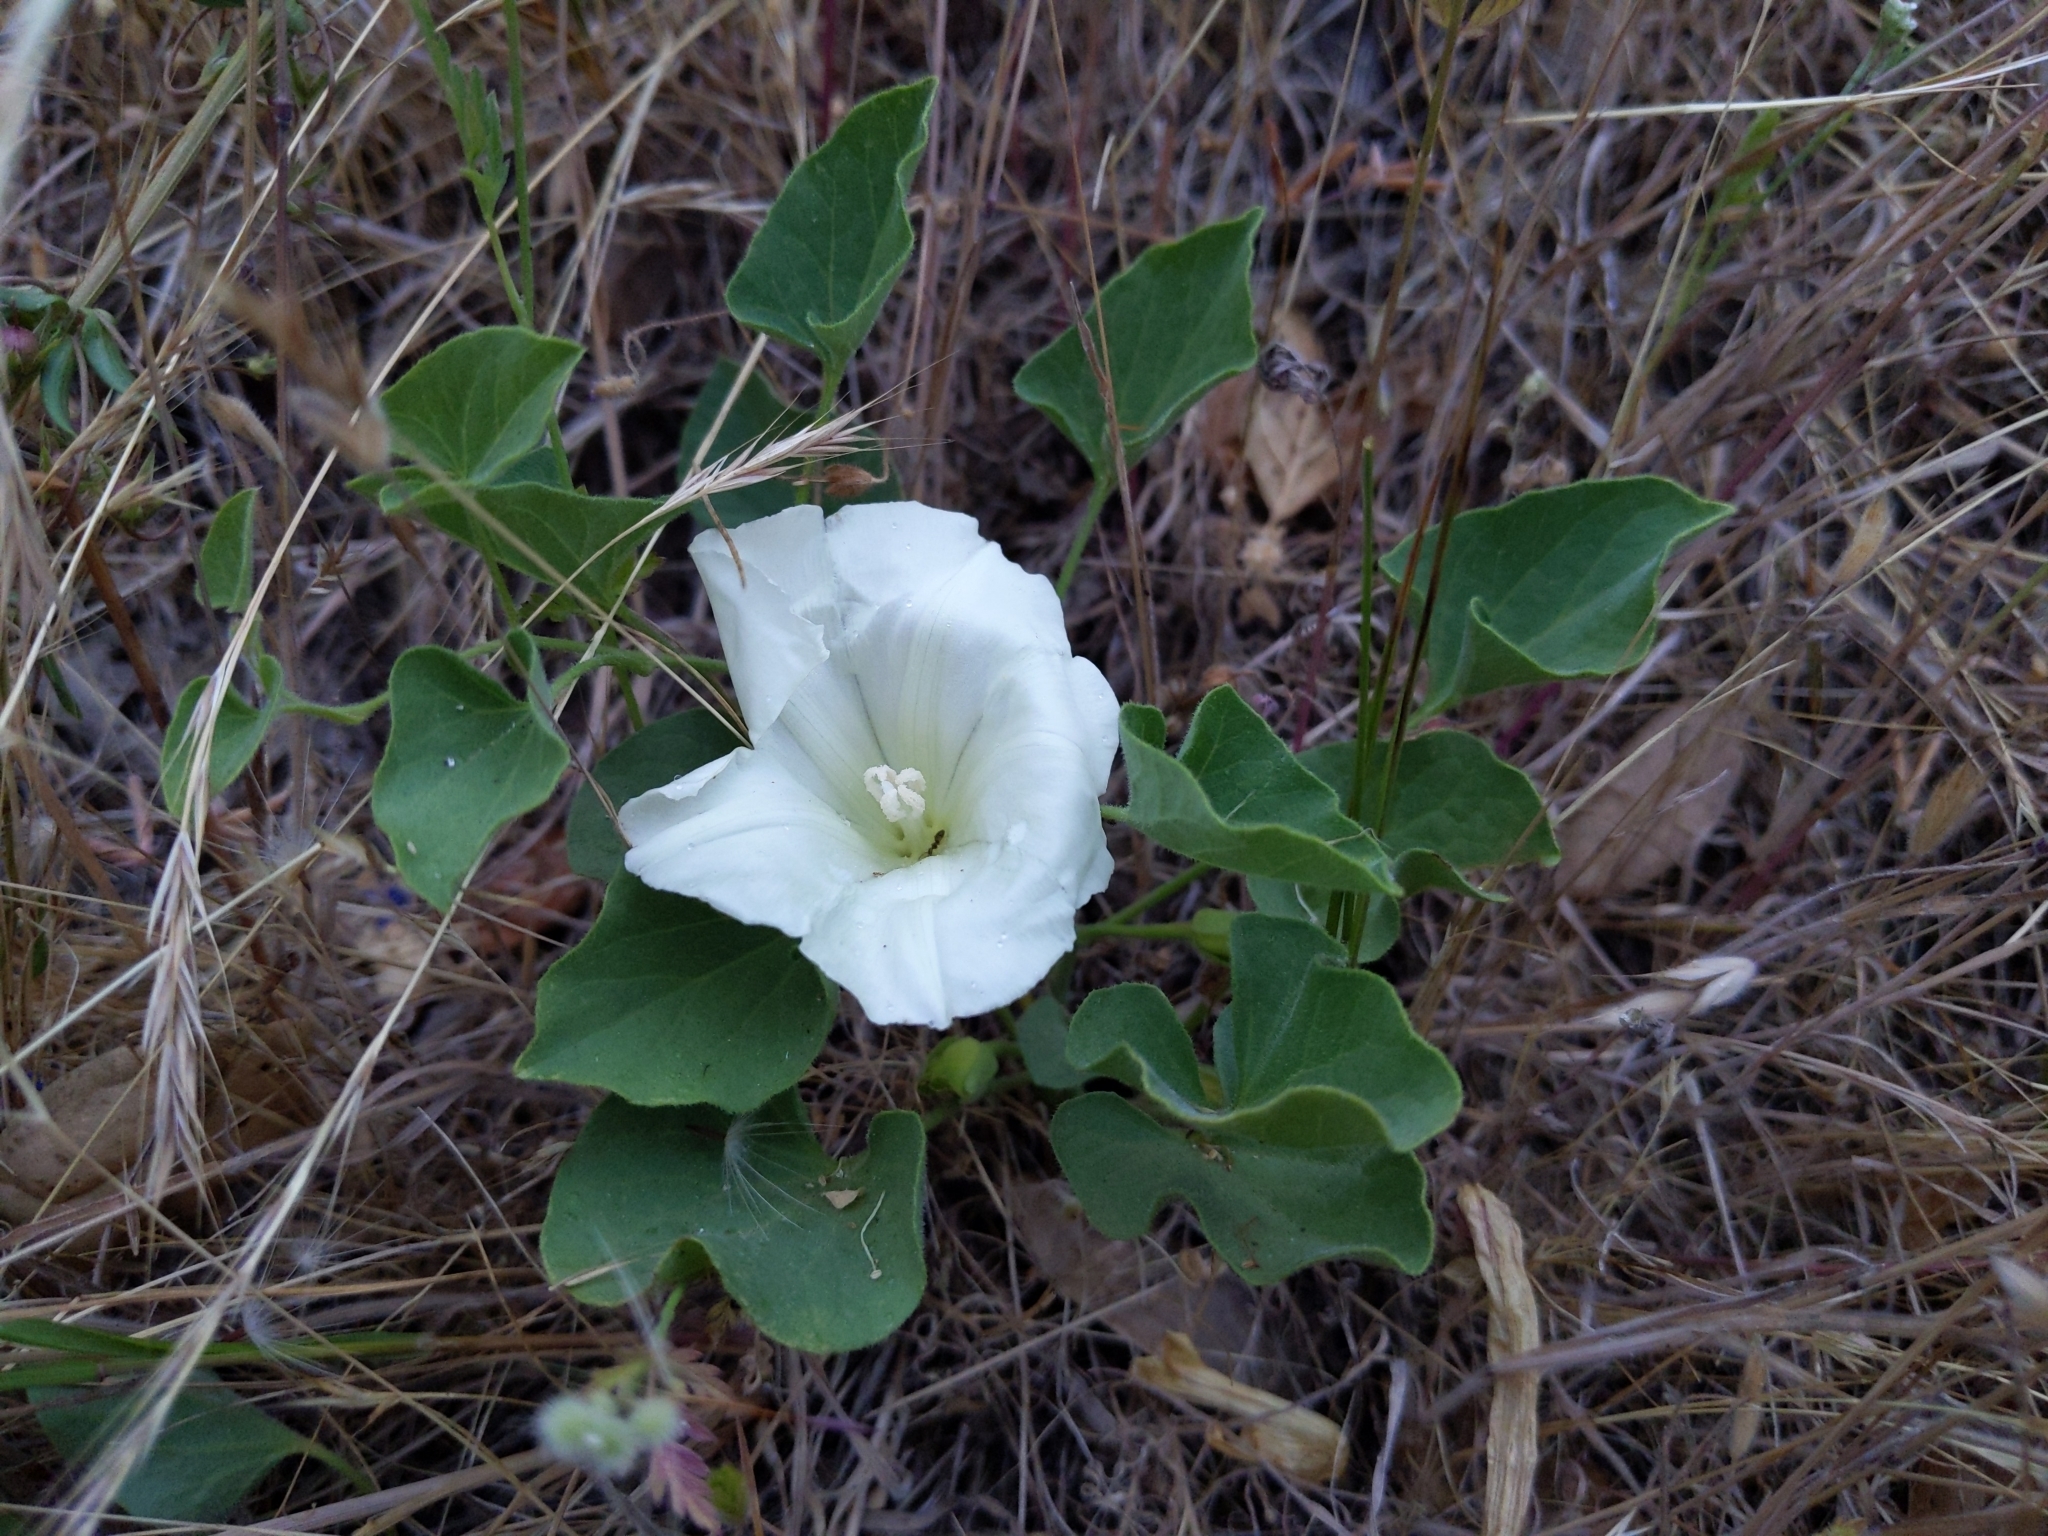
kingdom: Plantae
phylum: Tracheophyta
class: Magnoliopsida
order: Solanales
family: Convolvulaceae
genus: Calystegia
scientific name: Calystegia subacaulis
